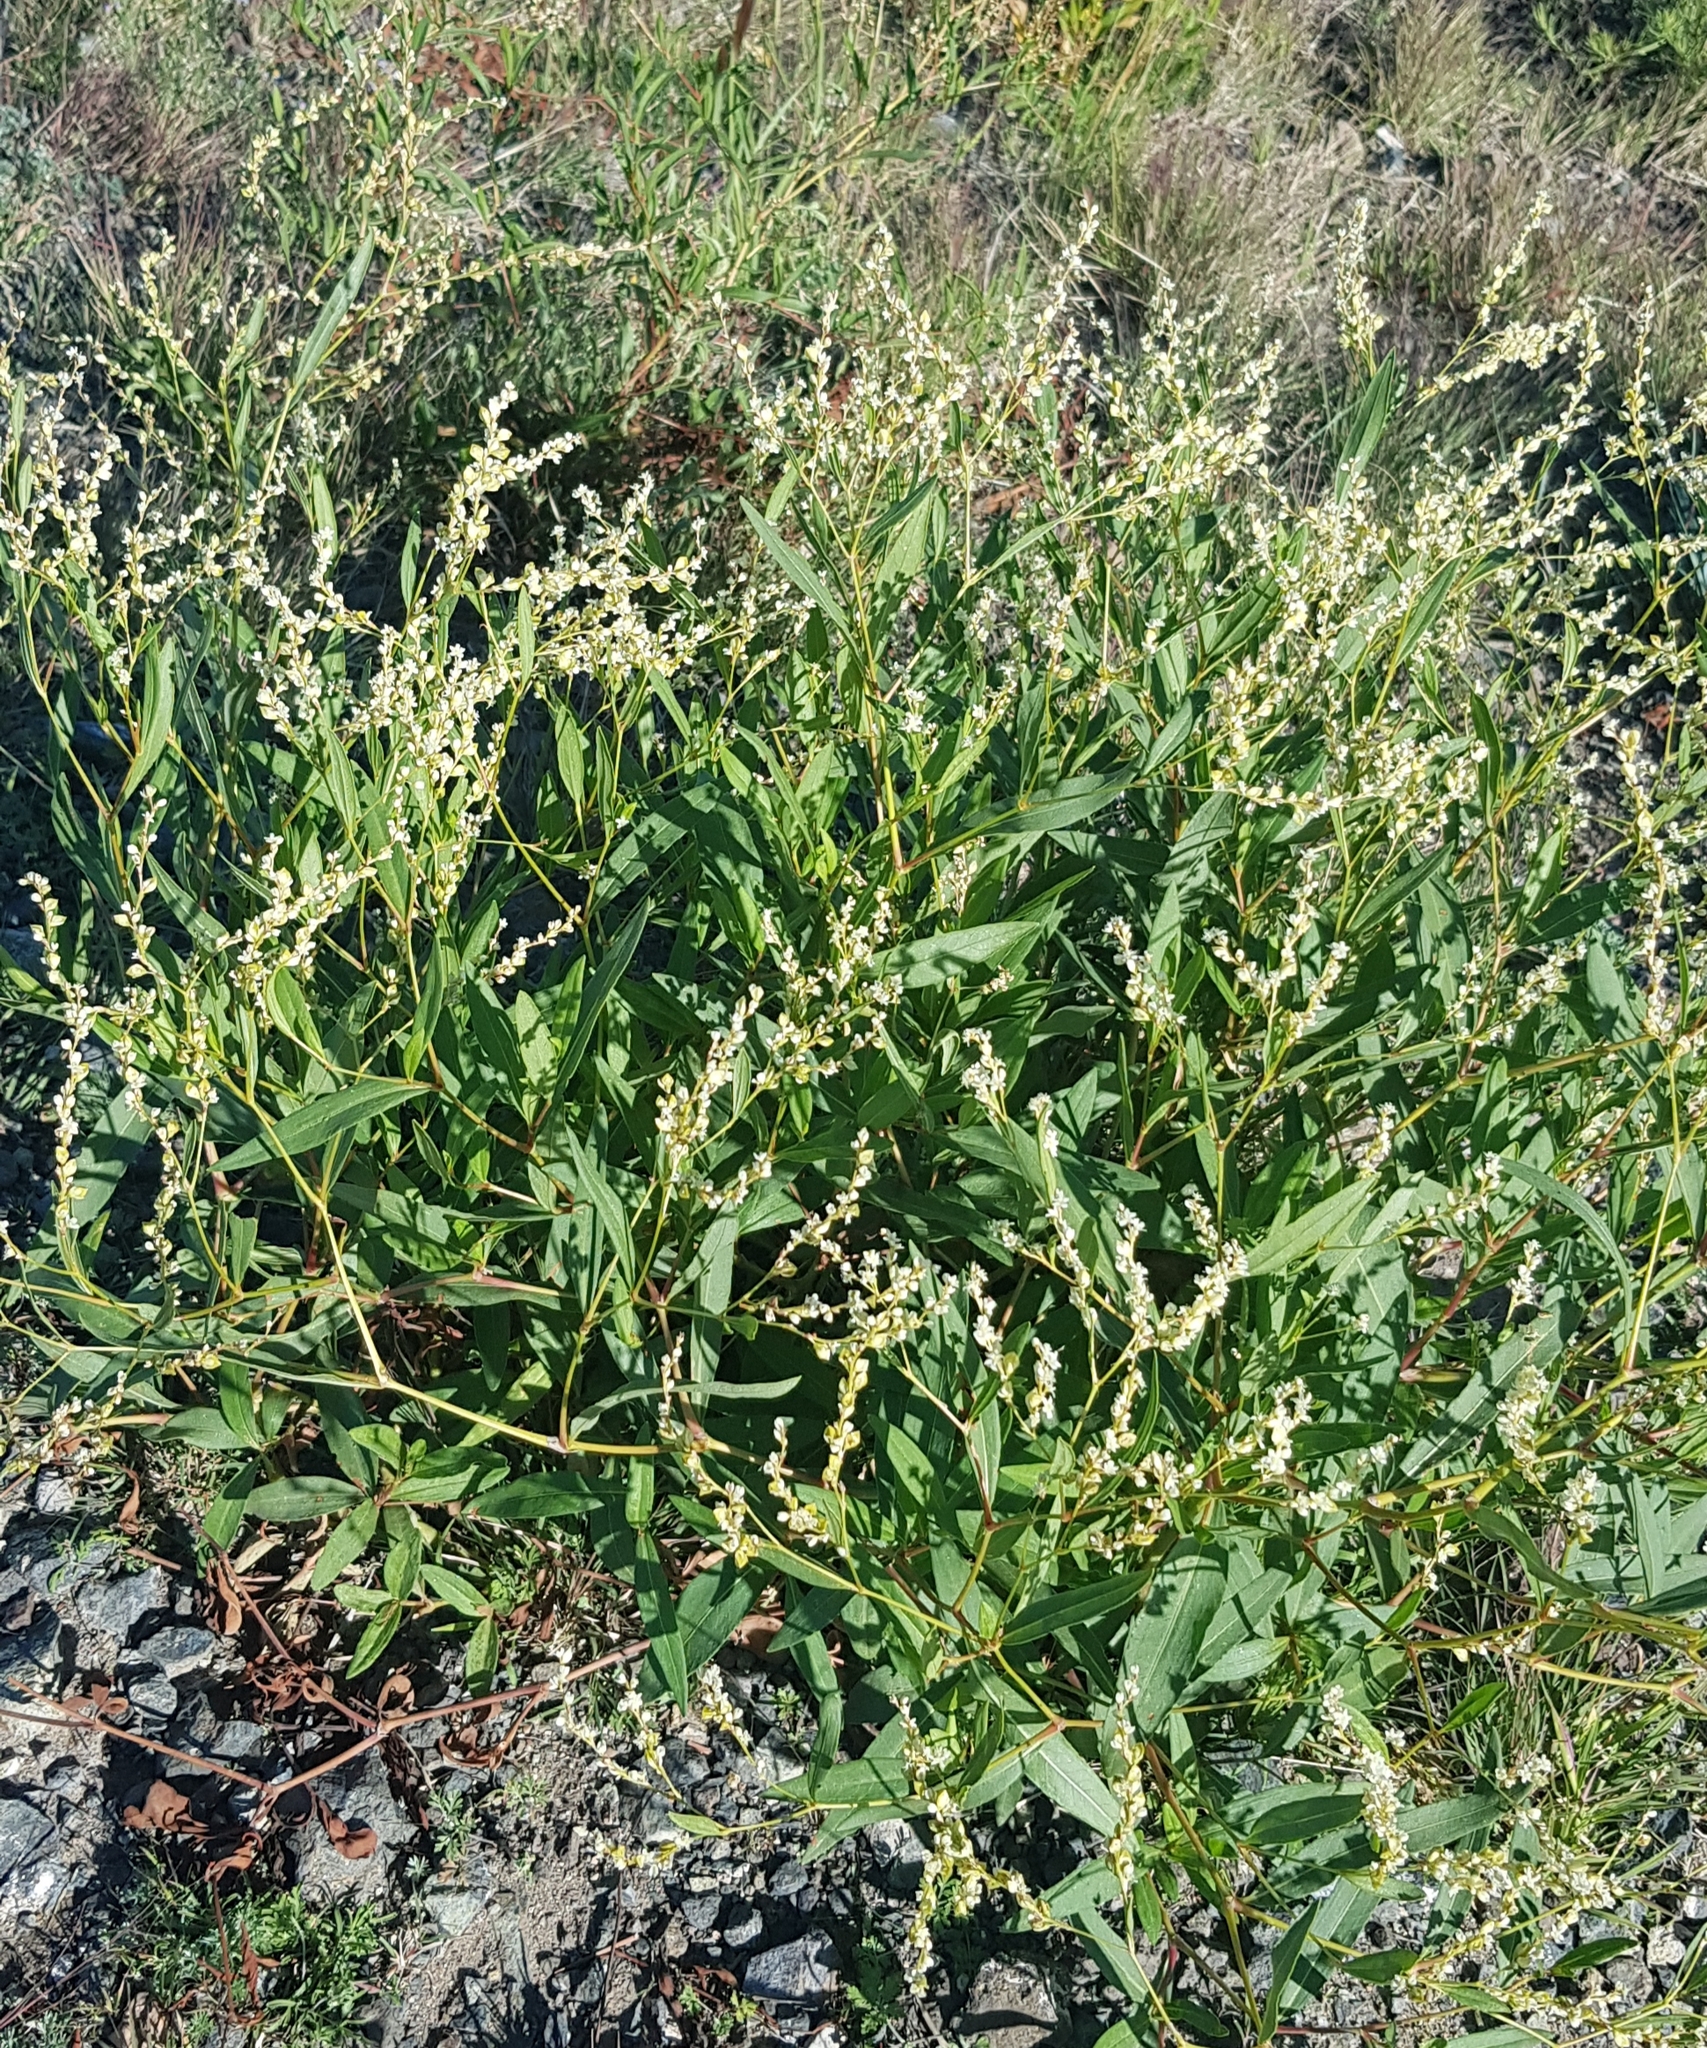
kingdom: Plantae
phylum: Tracheophyta
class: Magnoliopsida
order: Caryophyllales
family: Polygonaceae
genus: Koenigia
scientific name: Koenigia divaricata
